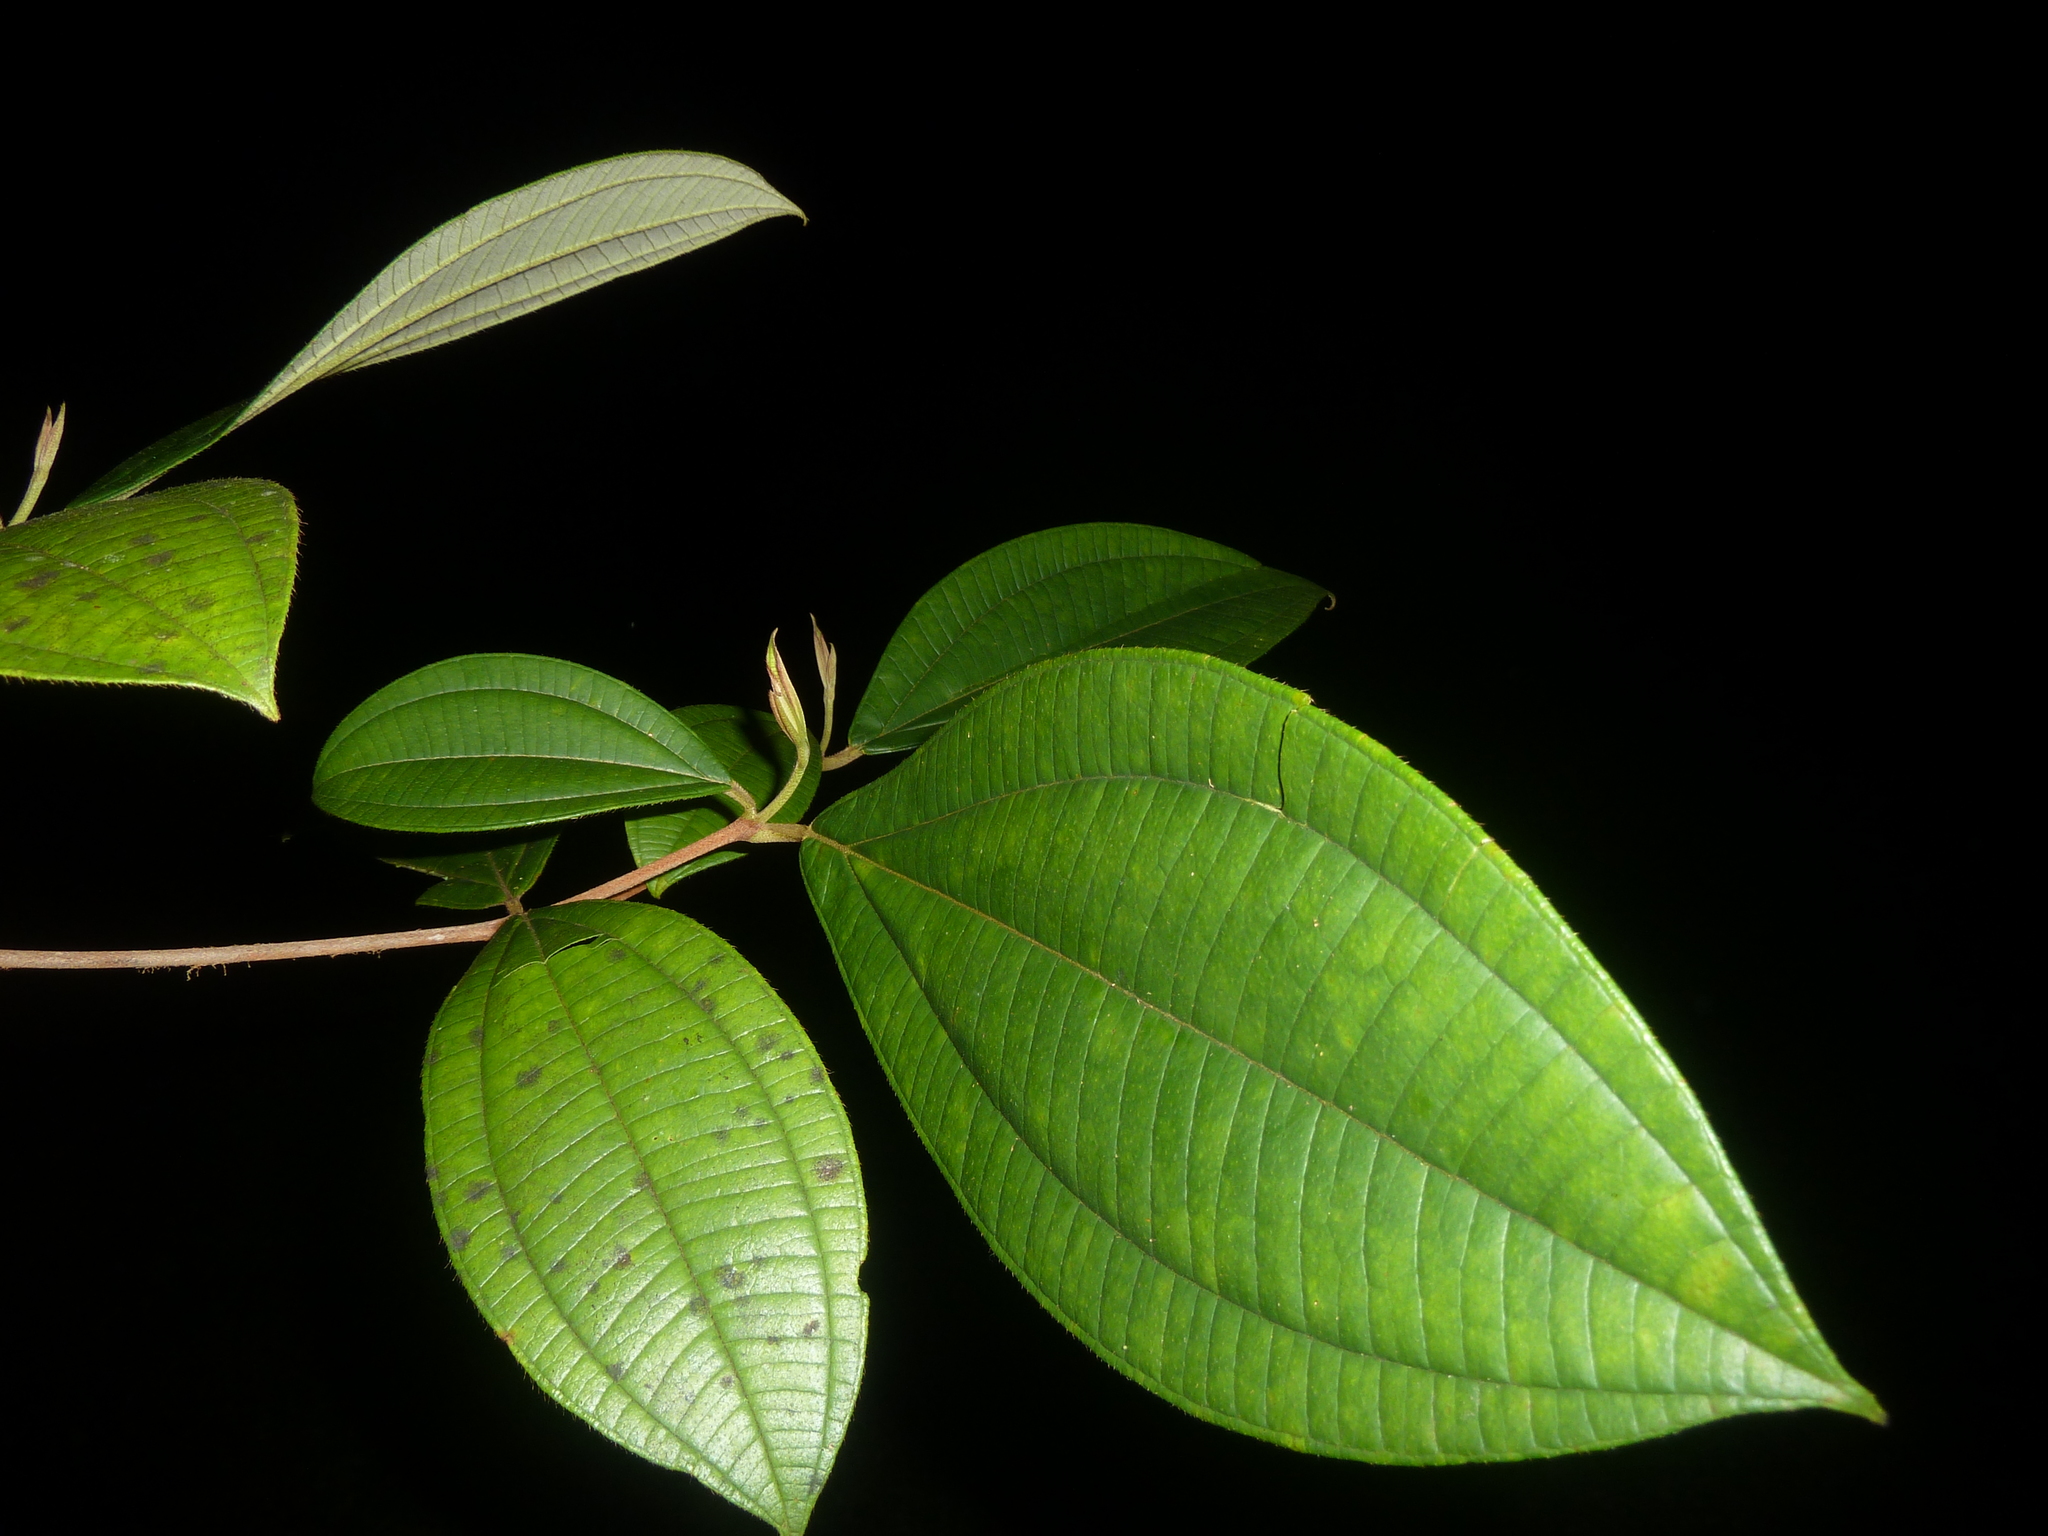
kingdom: Plantae
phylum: Tracheophyta
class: Magnoliopsida
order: Myrtales
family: Melastomataceae
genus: Henriettea
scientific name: Henriettea succosa
